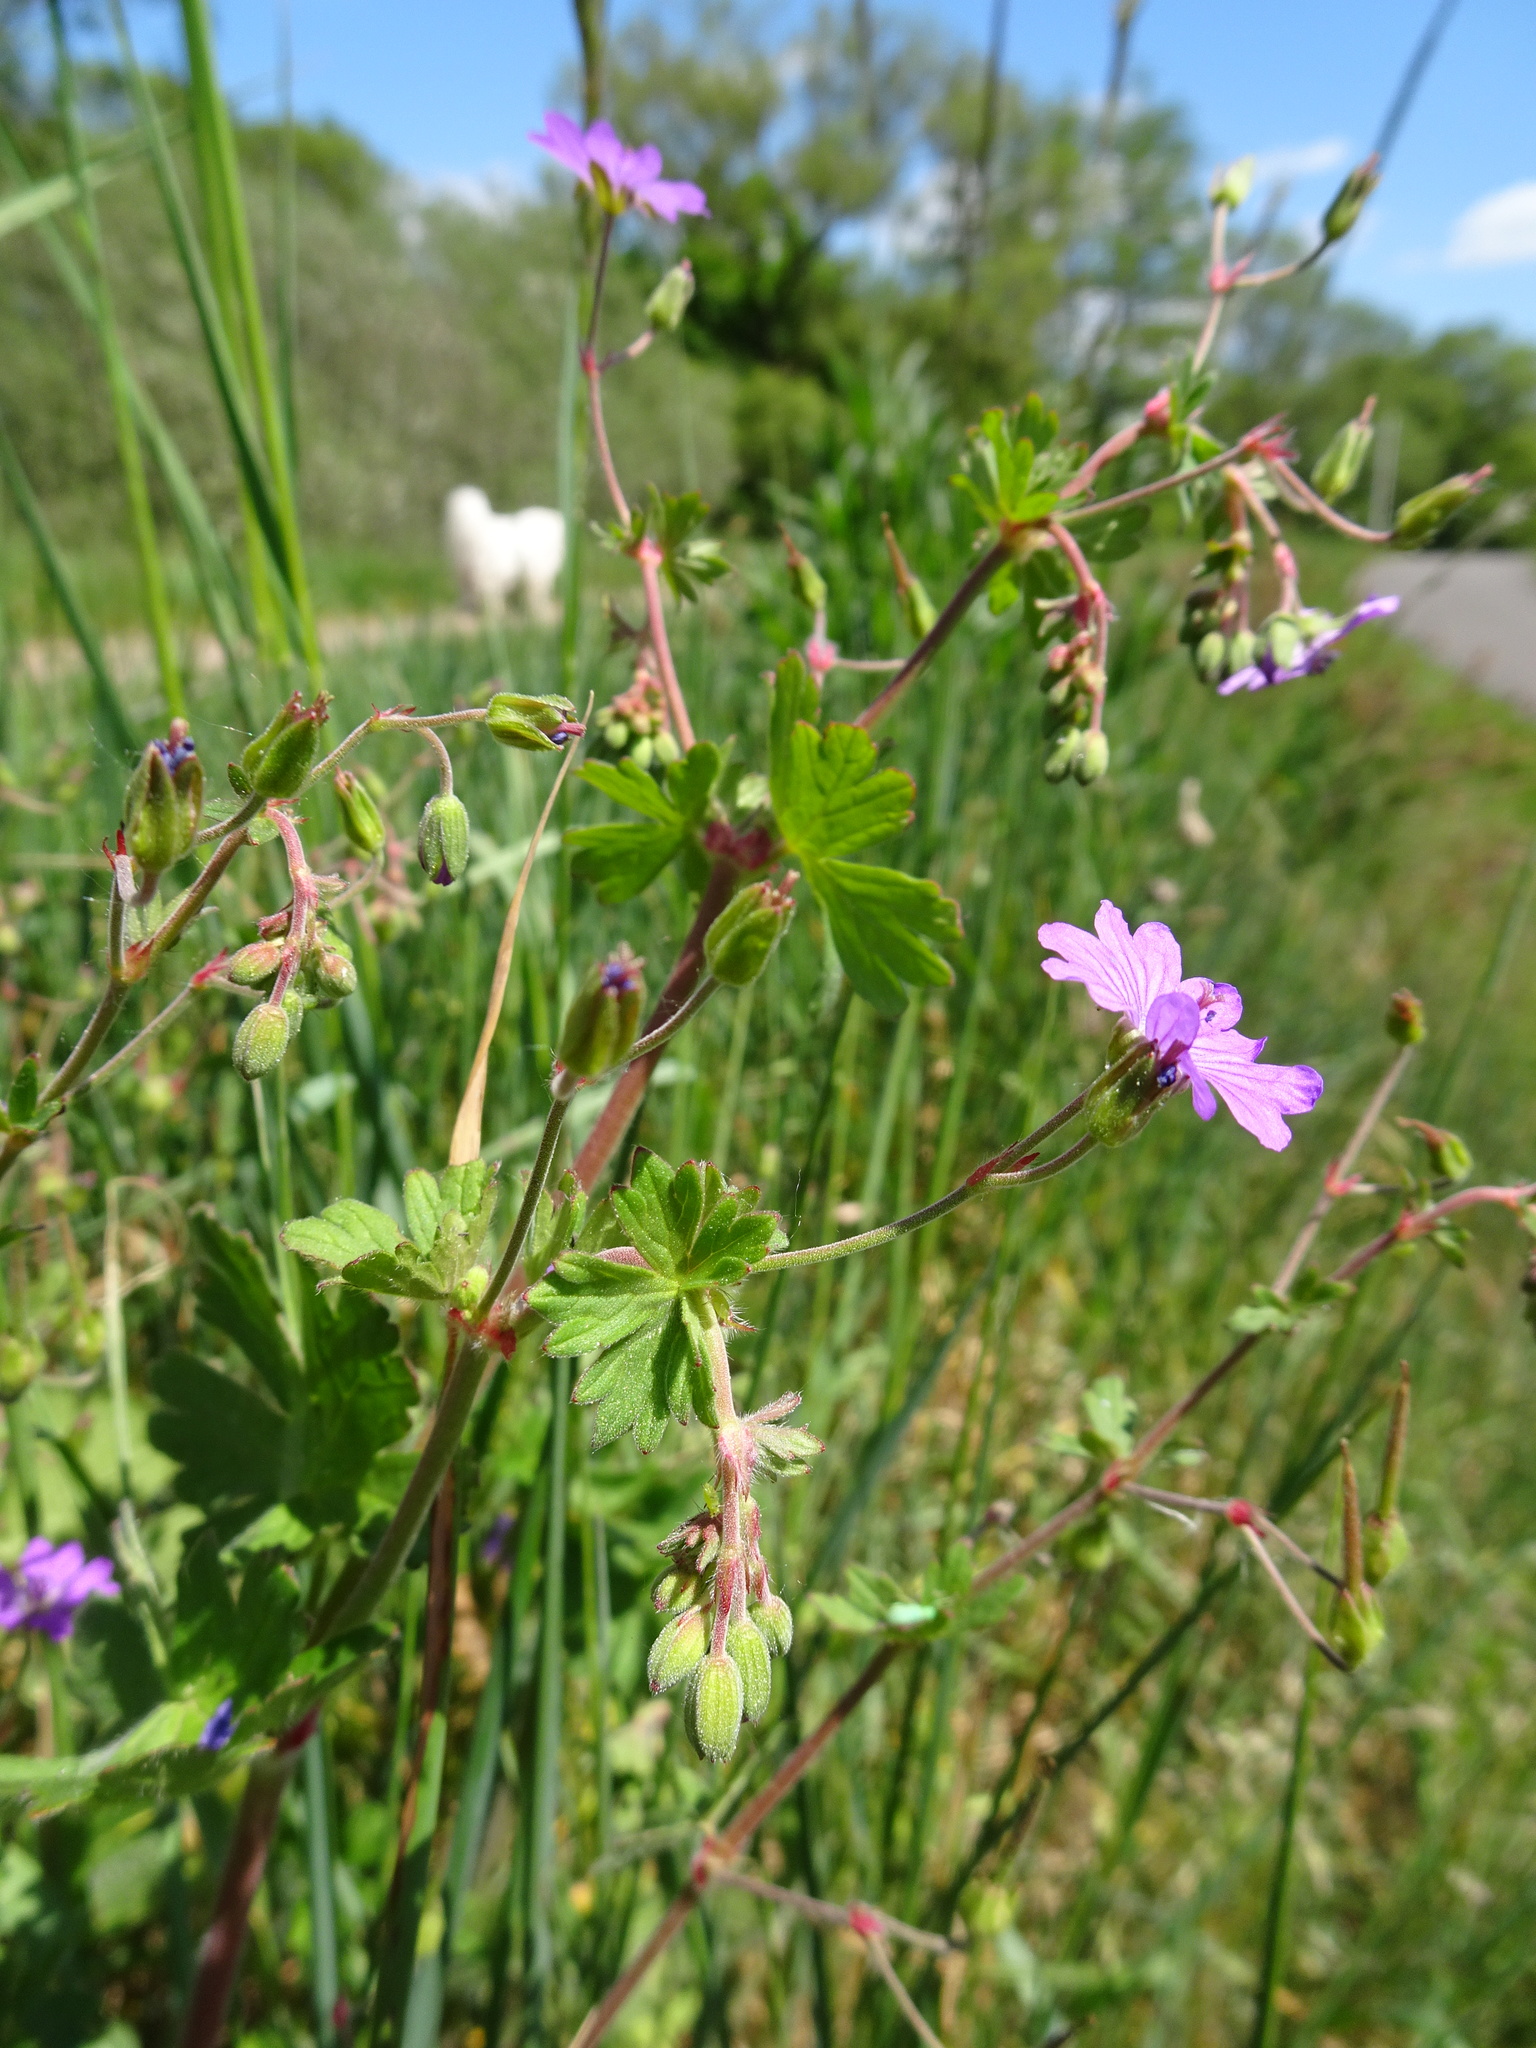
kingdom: Plantae
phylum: Tracheophyta
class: Magnoliopsida
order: Geraniales
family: Geraniaceae
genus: Geranium
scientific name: Geranium pyrenaicum
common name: Hedgerow crane's-bill
